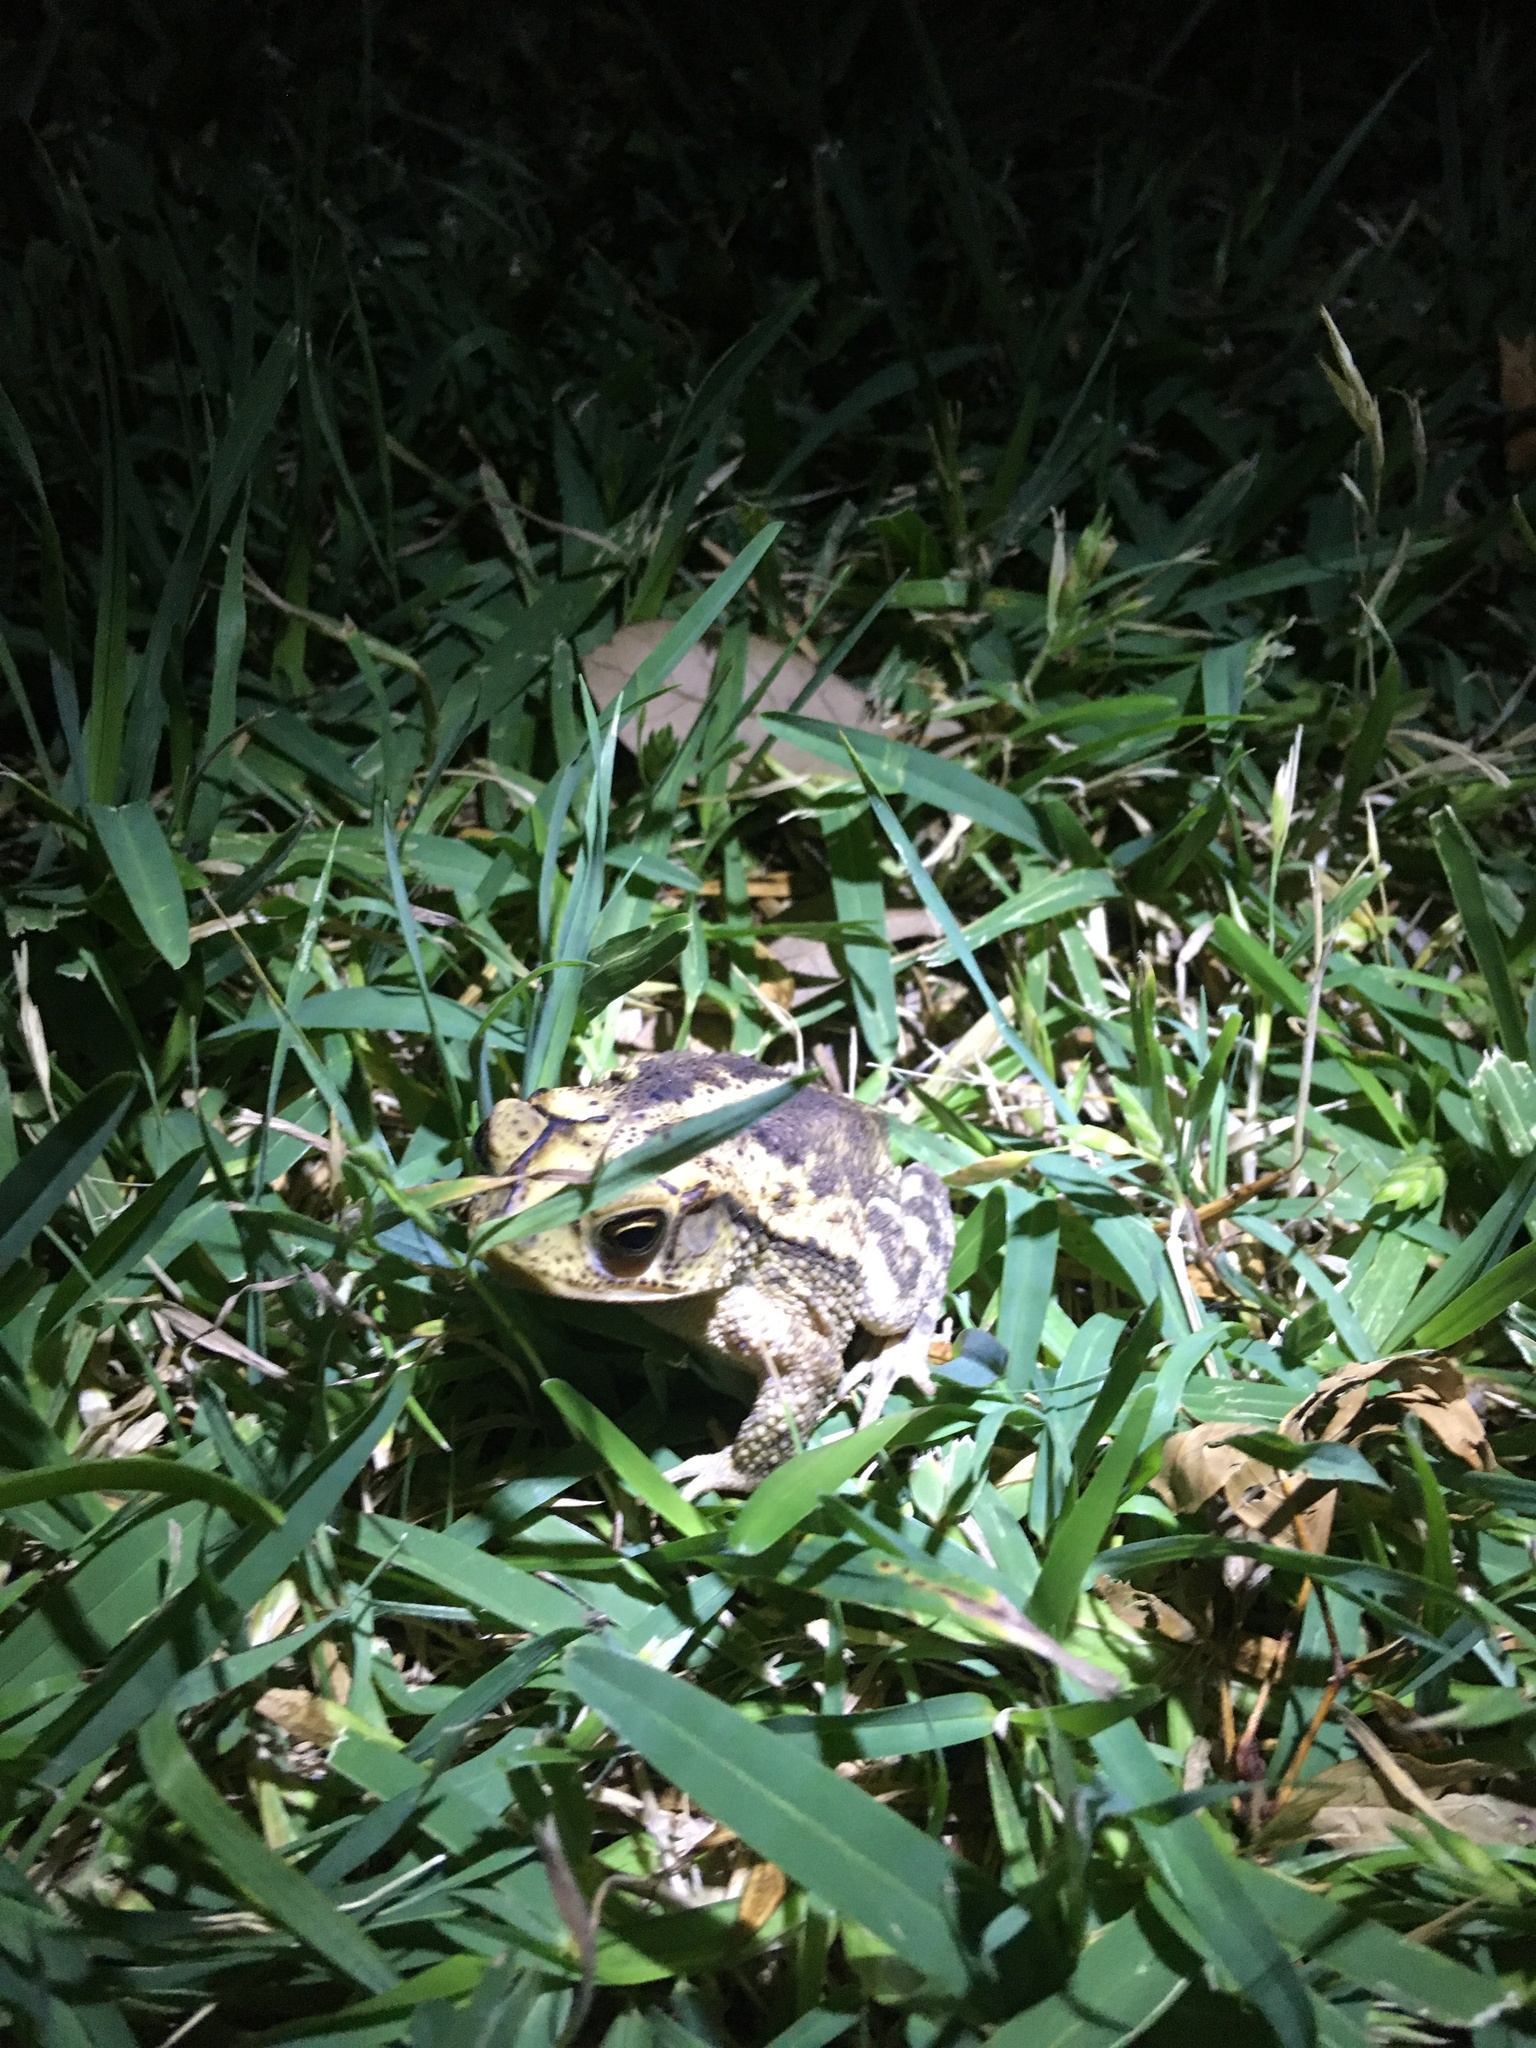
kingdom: Animalia
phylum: Chordata
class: Amphibia
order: Anura
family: Bufonidae
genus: Incilius
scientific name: Incilius nebulifer
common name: Gulf coast toad
